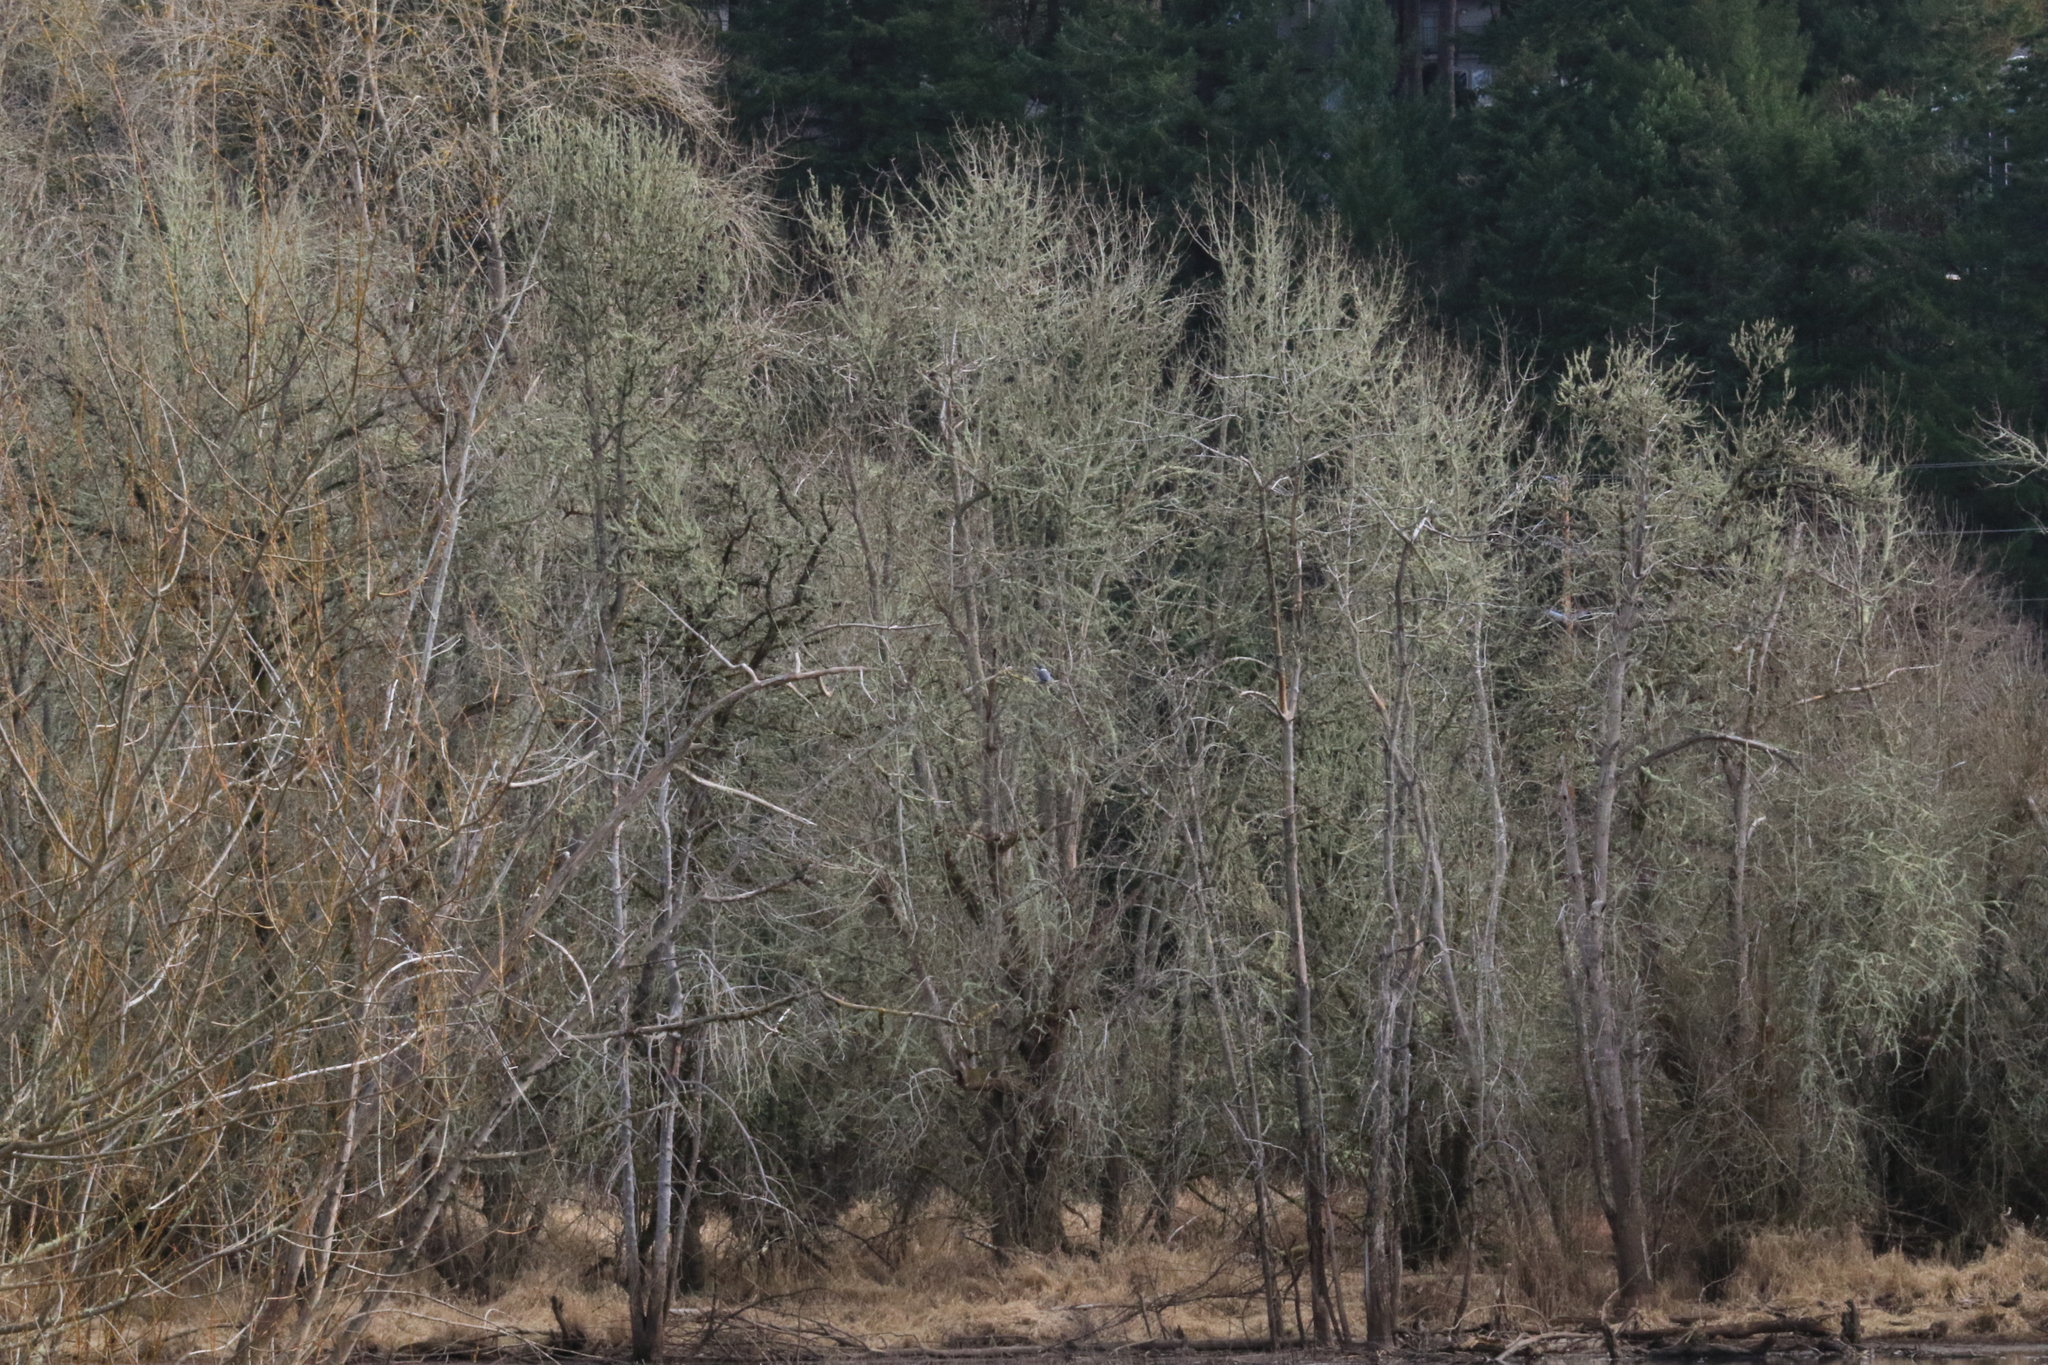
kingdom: Animalia
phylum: Chordata
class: Aves
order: Coraciiformes
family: Alcedinidae
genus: Megaceryle
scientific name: Megaceryle alcyon
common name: Belted kingfisher
